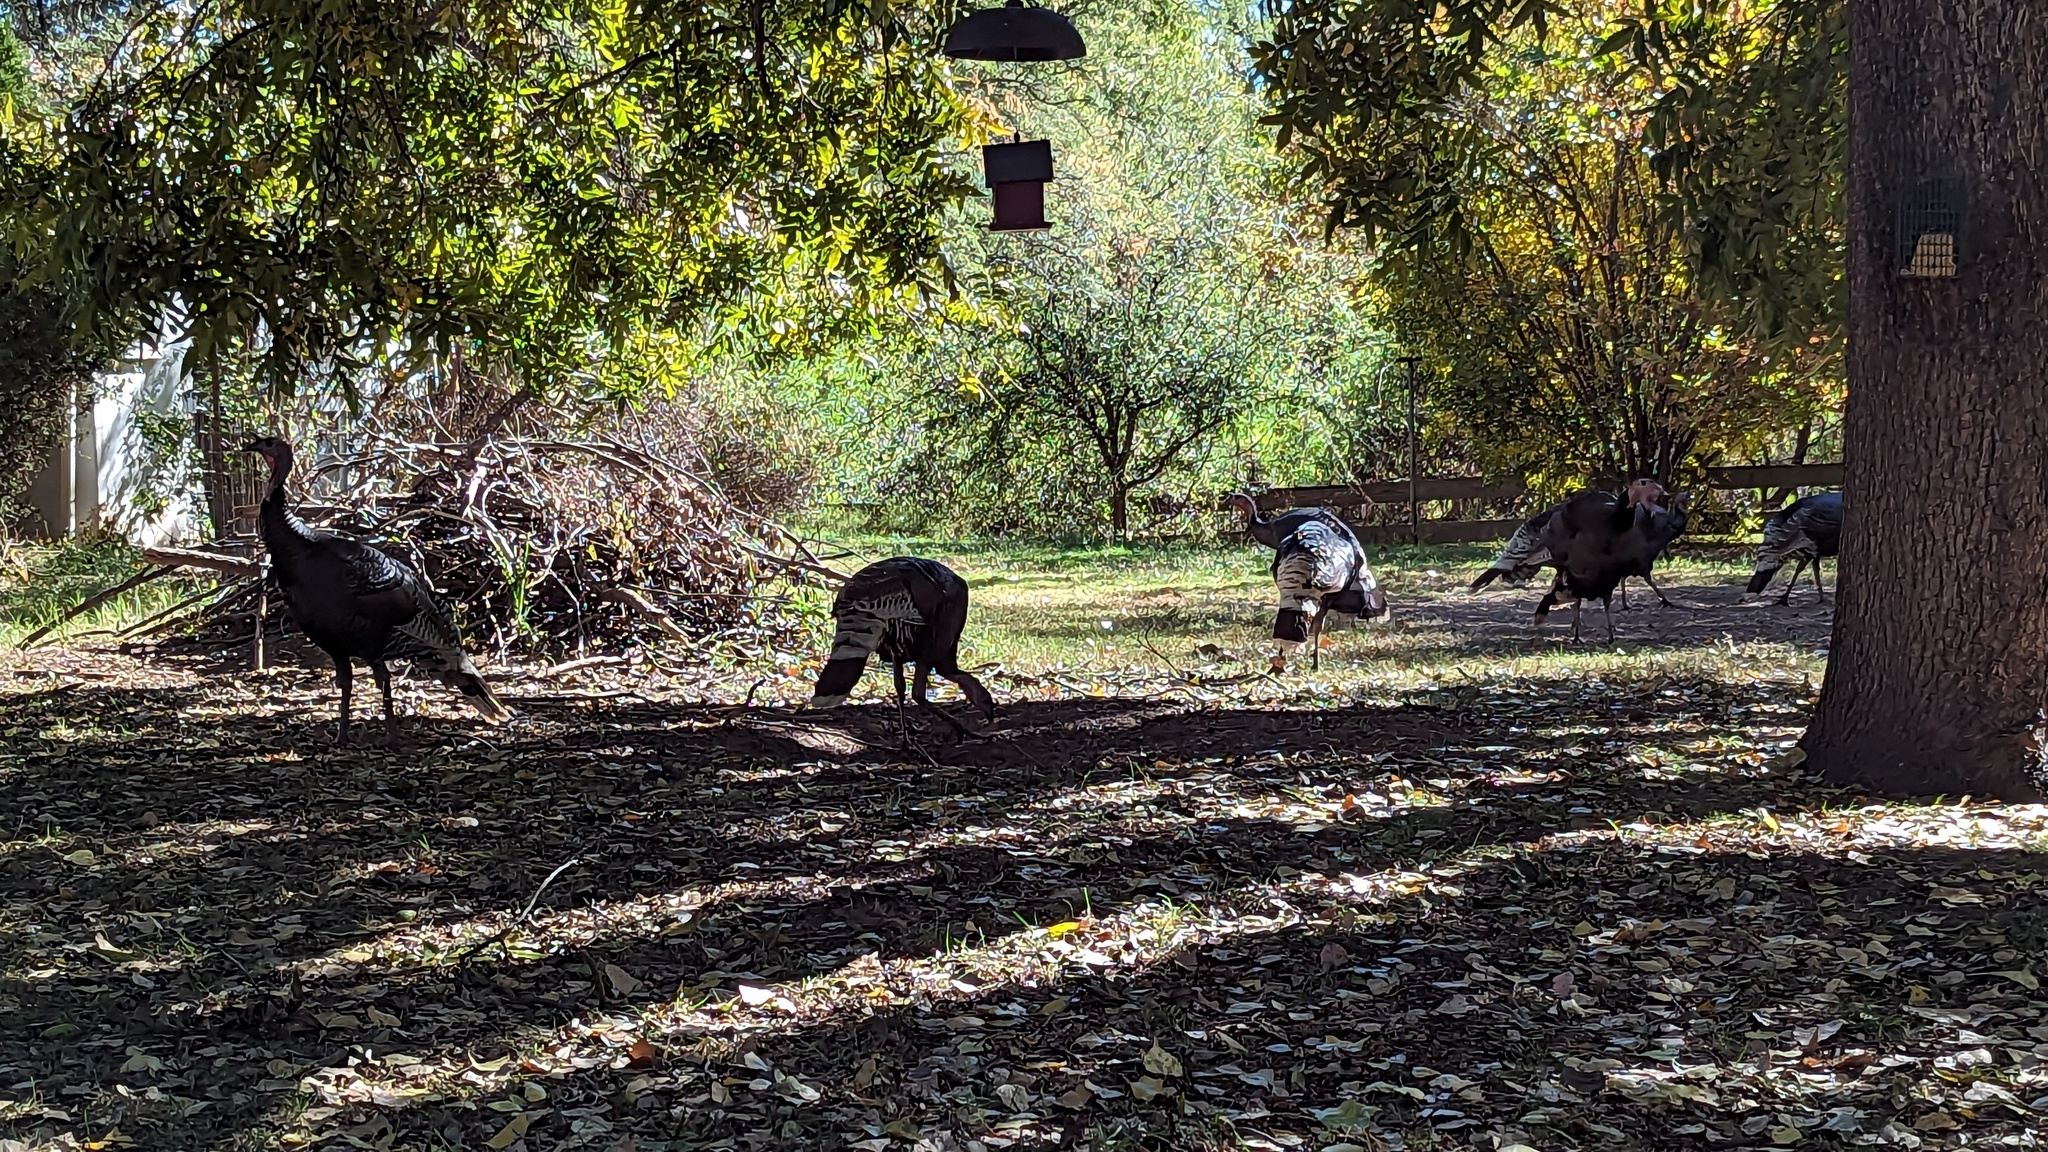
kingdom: Animalia
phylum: Chordata
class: Aves
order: Galliformes
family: Phasianidae
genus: Meleagris
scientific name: Meleagris gallopavo
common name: Wild turkey
